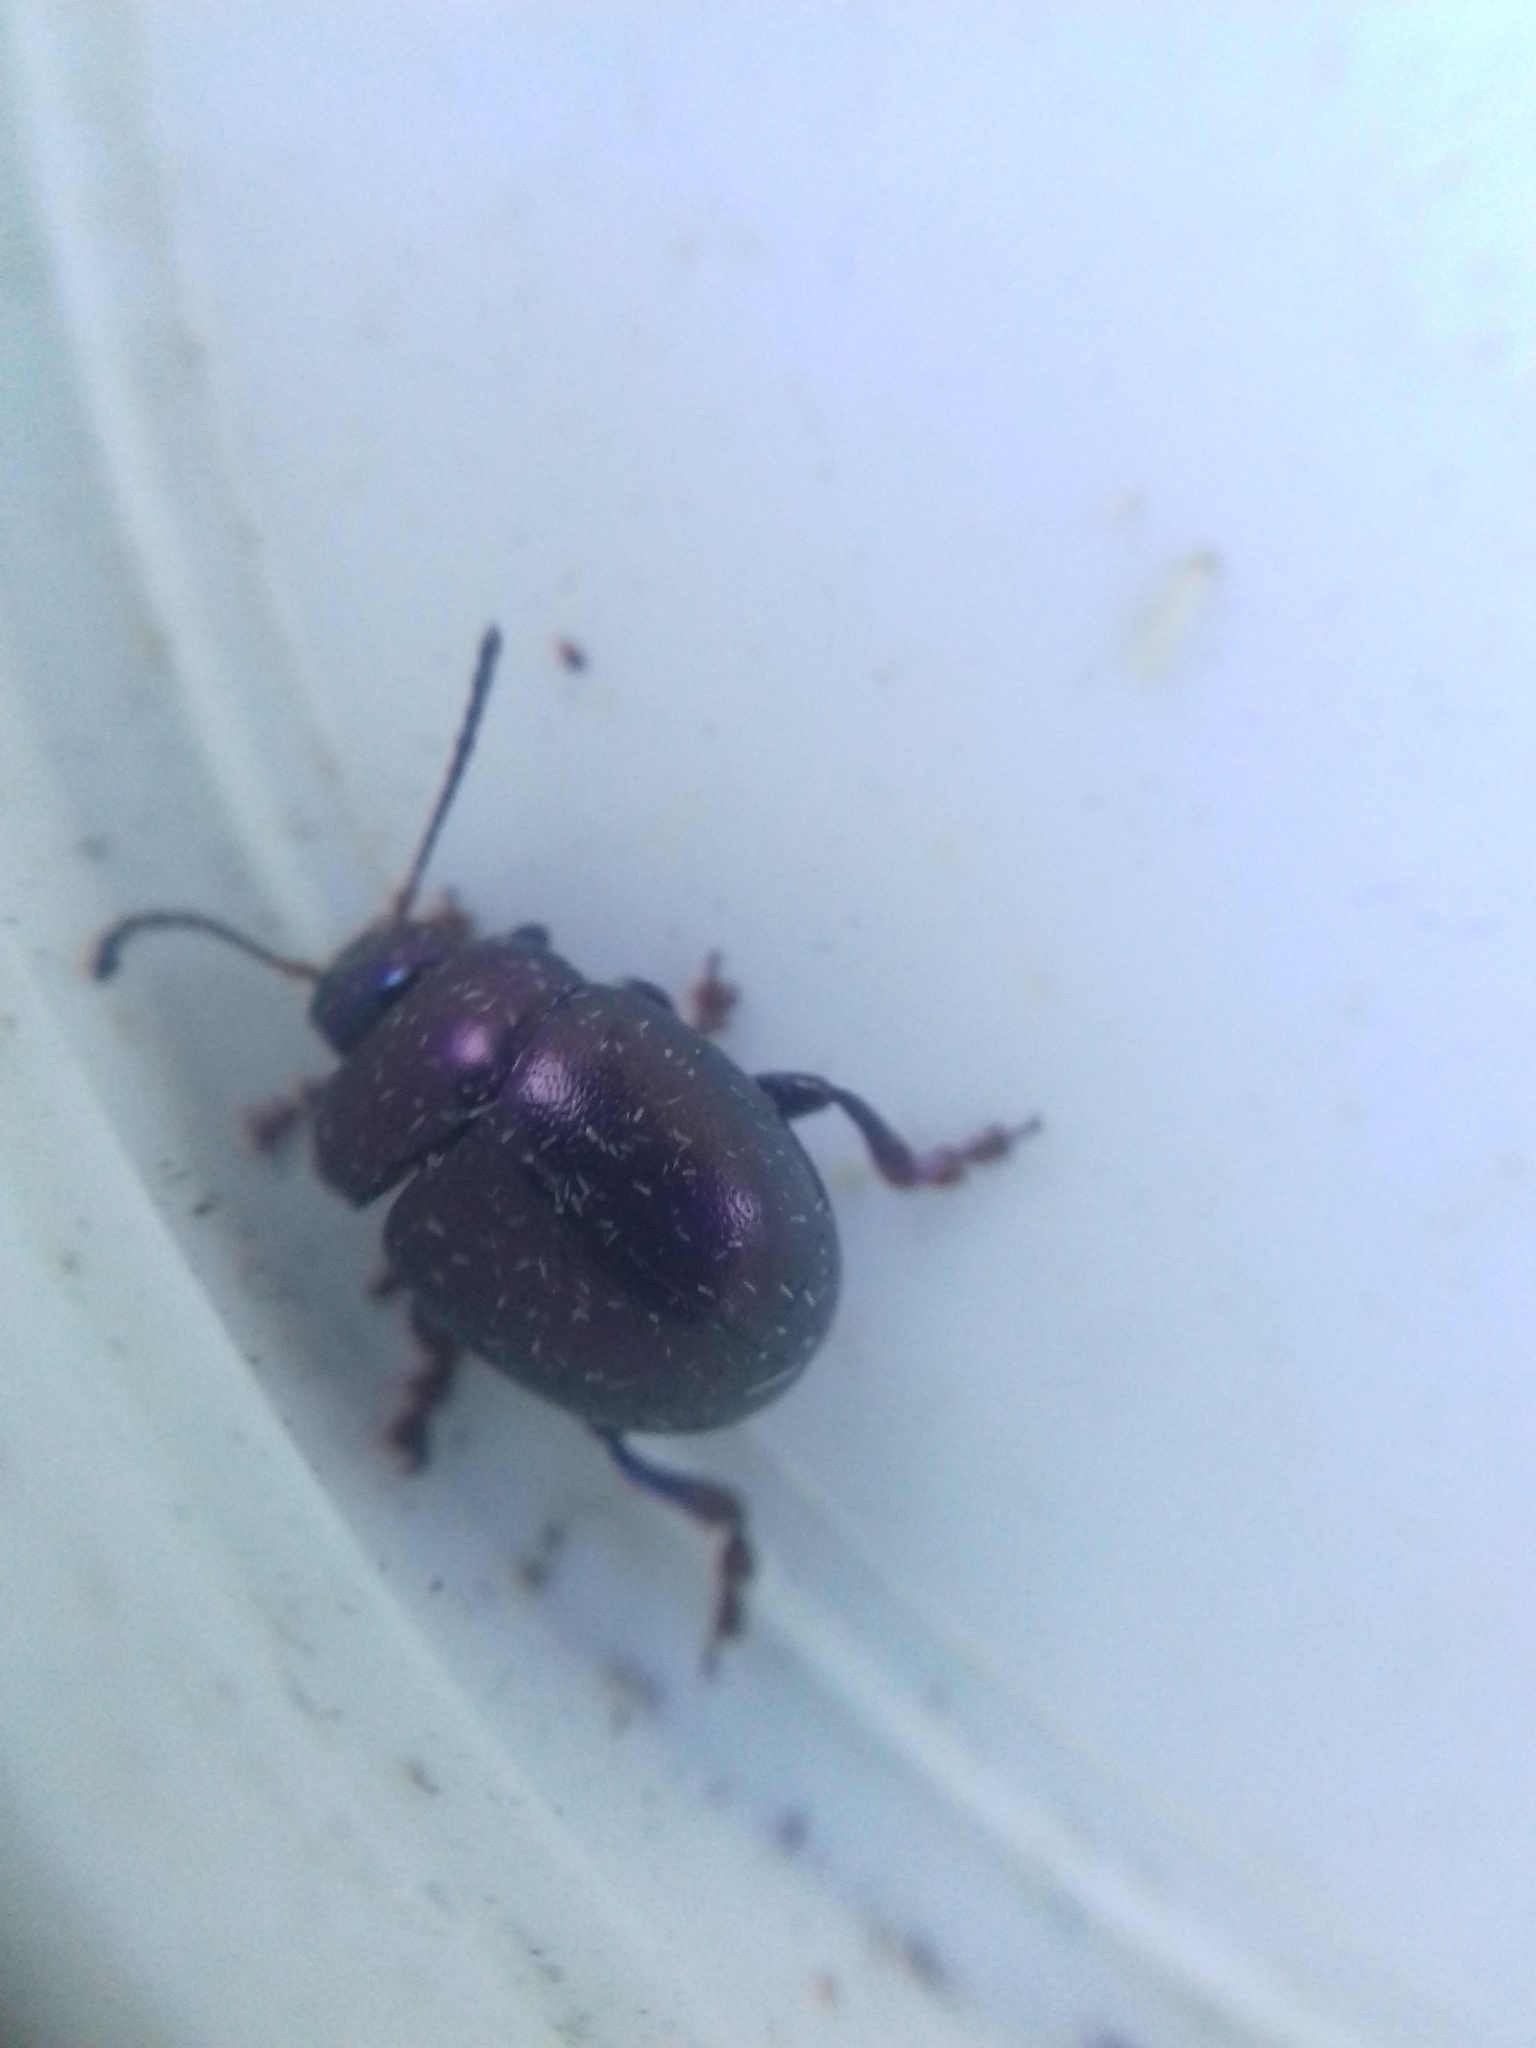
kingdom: Animalia
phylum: Arthropoda
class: Insecta
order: Coleoptera
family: Chrysomelidae
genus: Chrysolina
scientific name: Chrysolina sturmi
